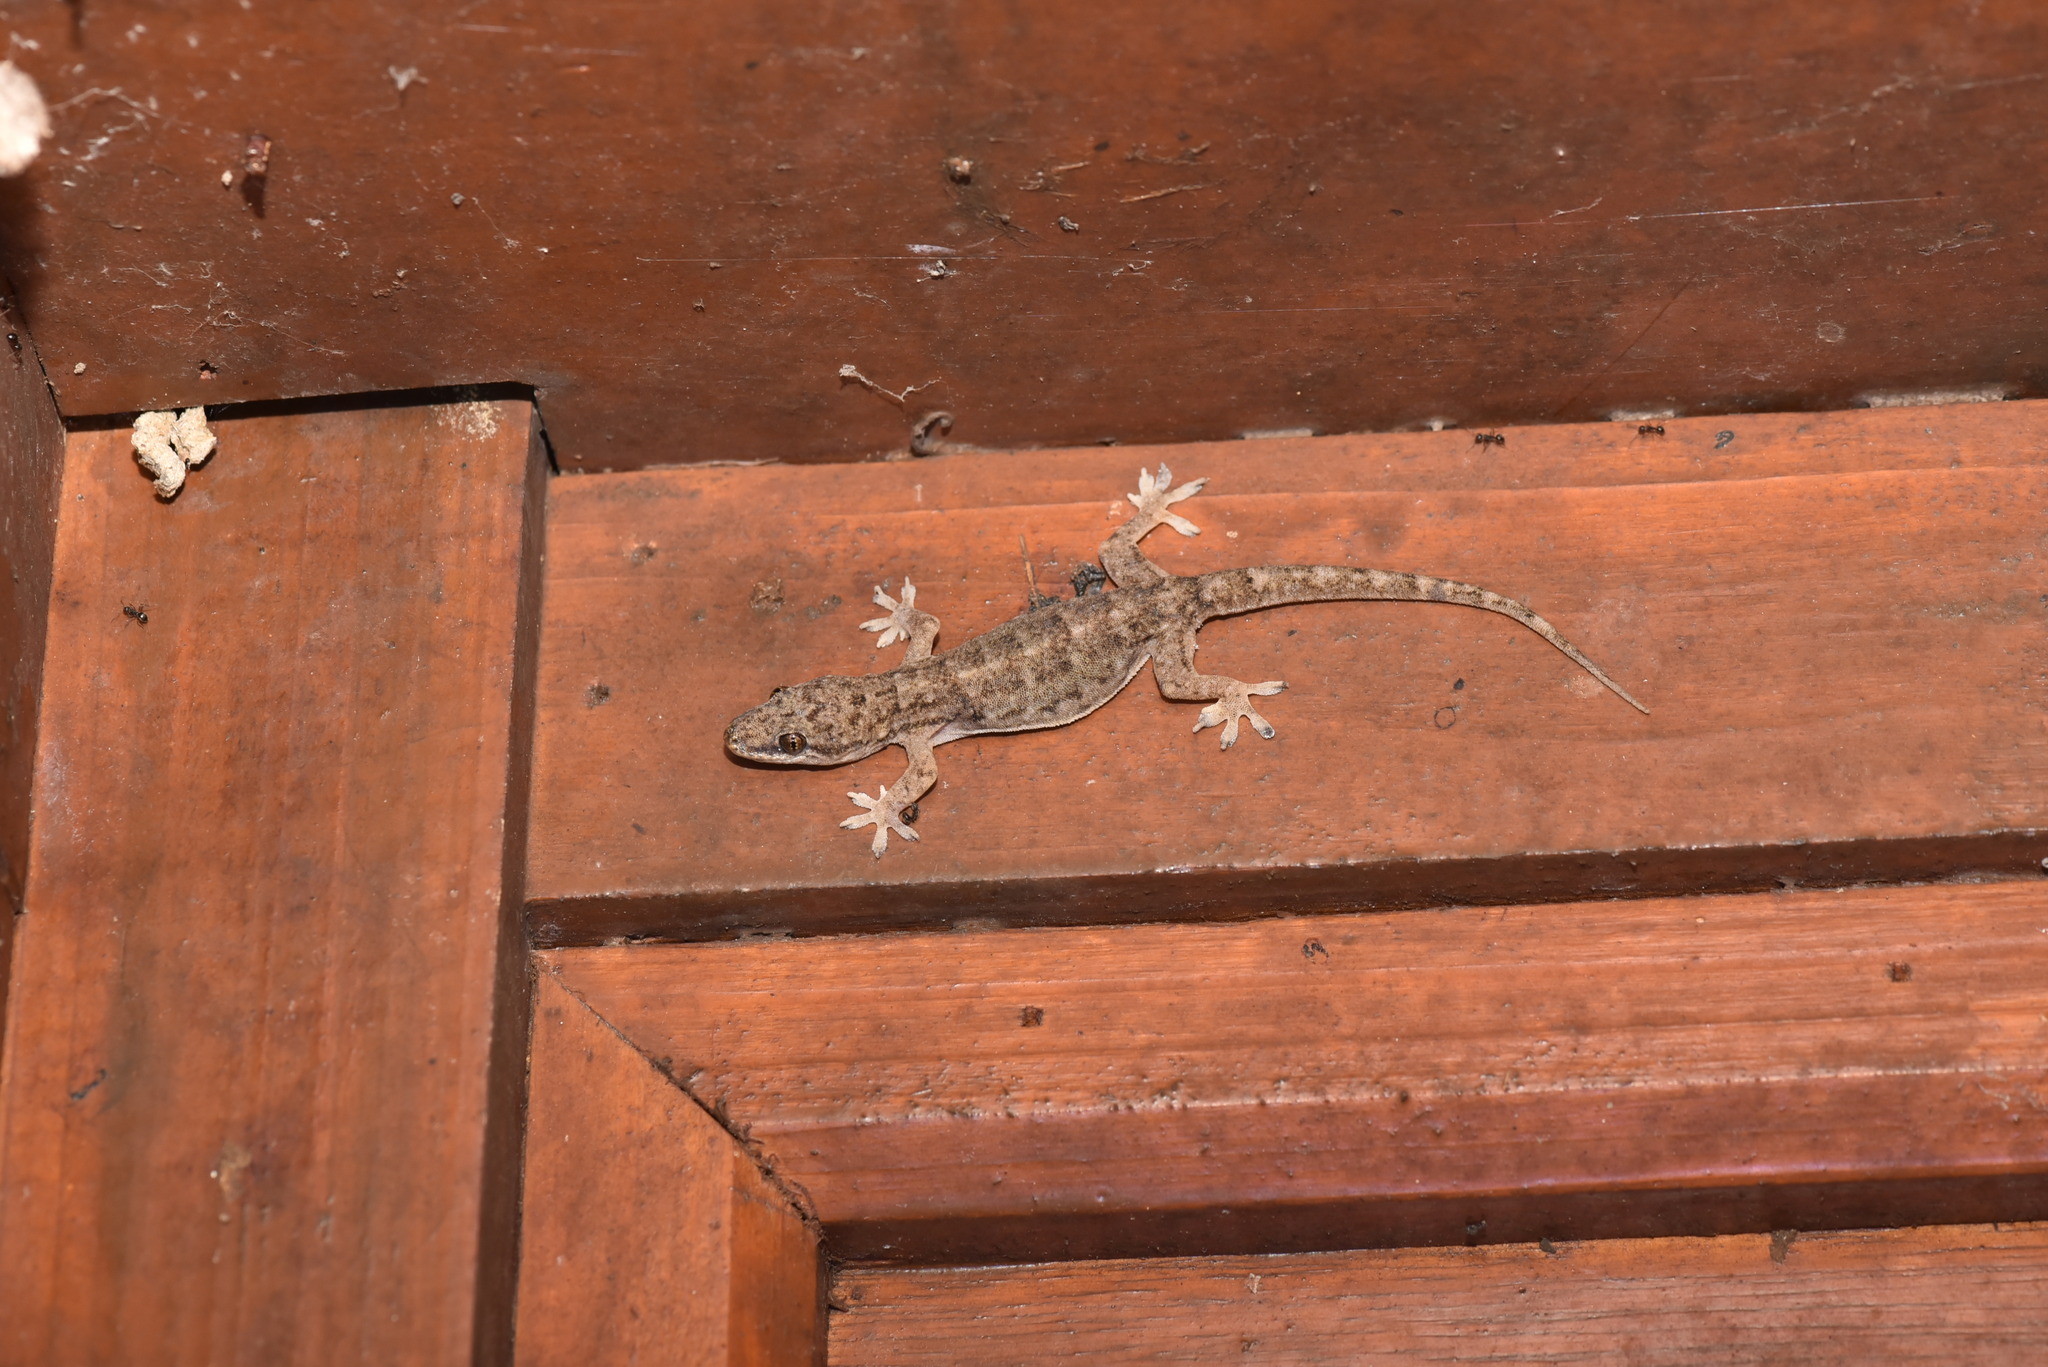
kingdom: Animalia
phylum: Chordata
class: Squamata
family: Gekkonidae
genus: Hemidactylus
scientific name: Hemidactylus bowringii
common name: Oriental leaf-toed gecko
